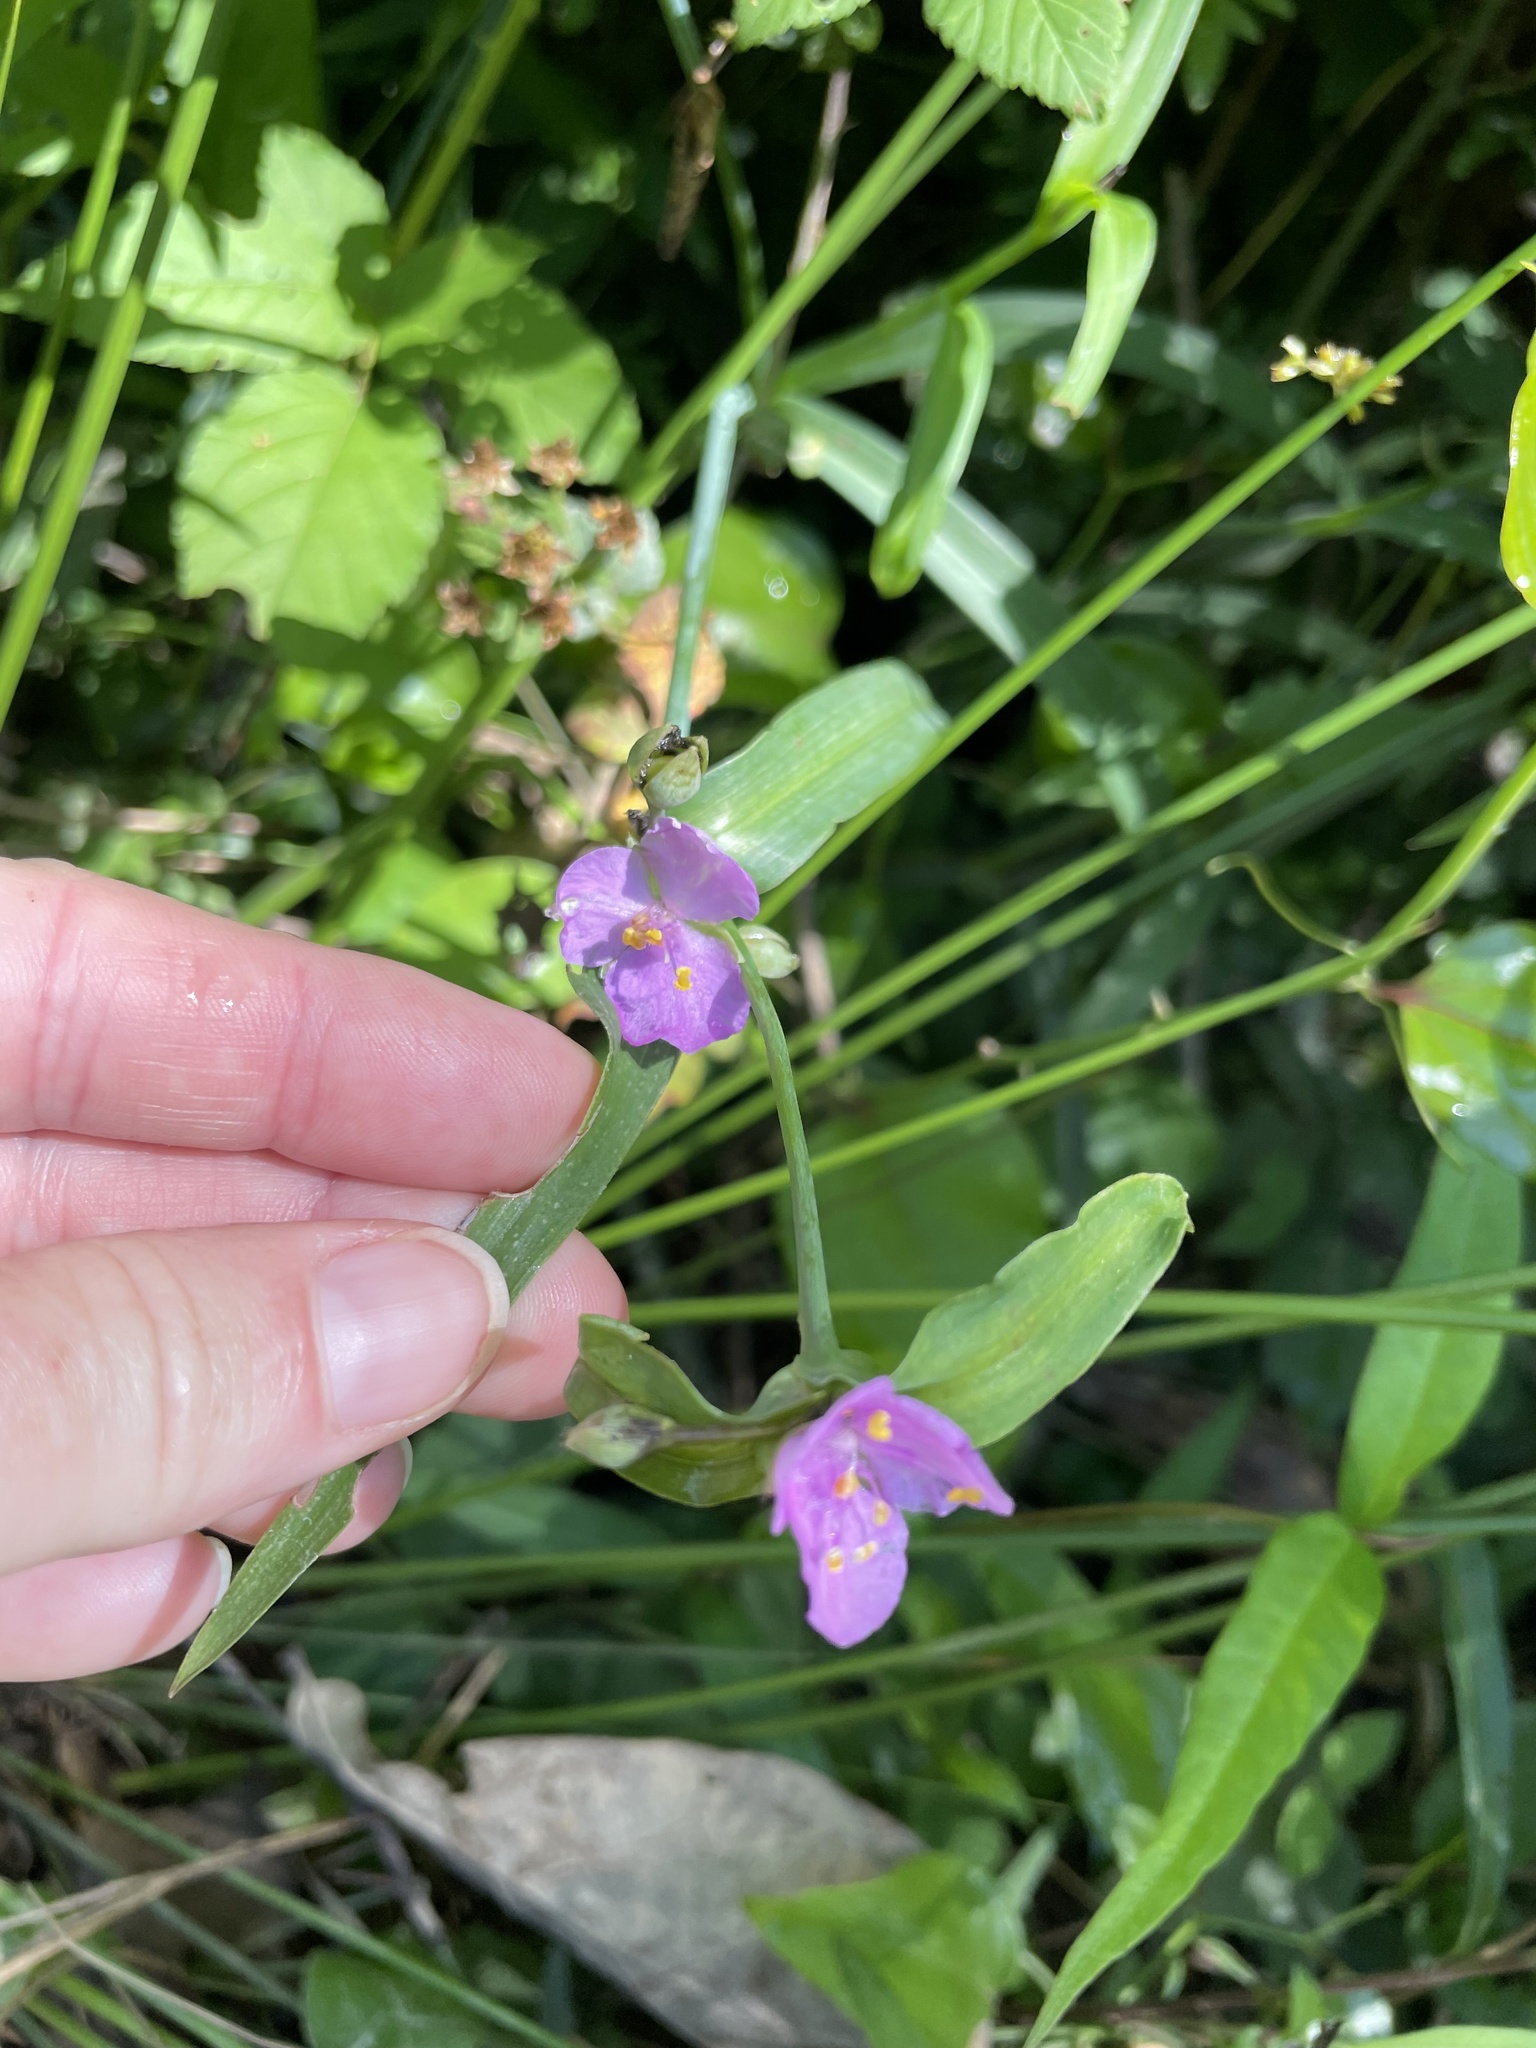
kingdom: Plantae
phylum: Tracheophyta
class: Liliopsida
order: Commelinales
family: Commelinaceae
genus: Tradescantia
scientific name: Tradescantia ohiensis
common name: Ohio spiderwort
